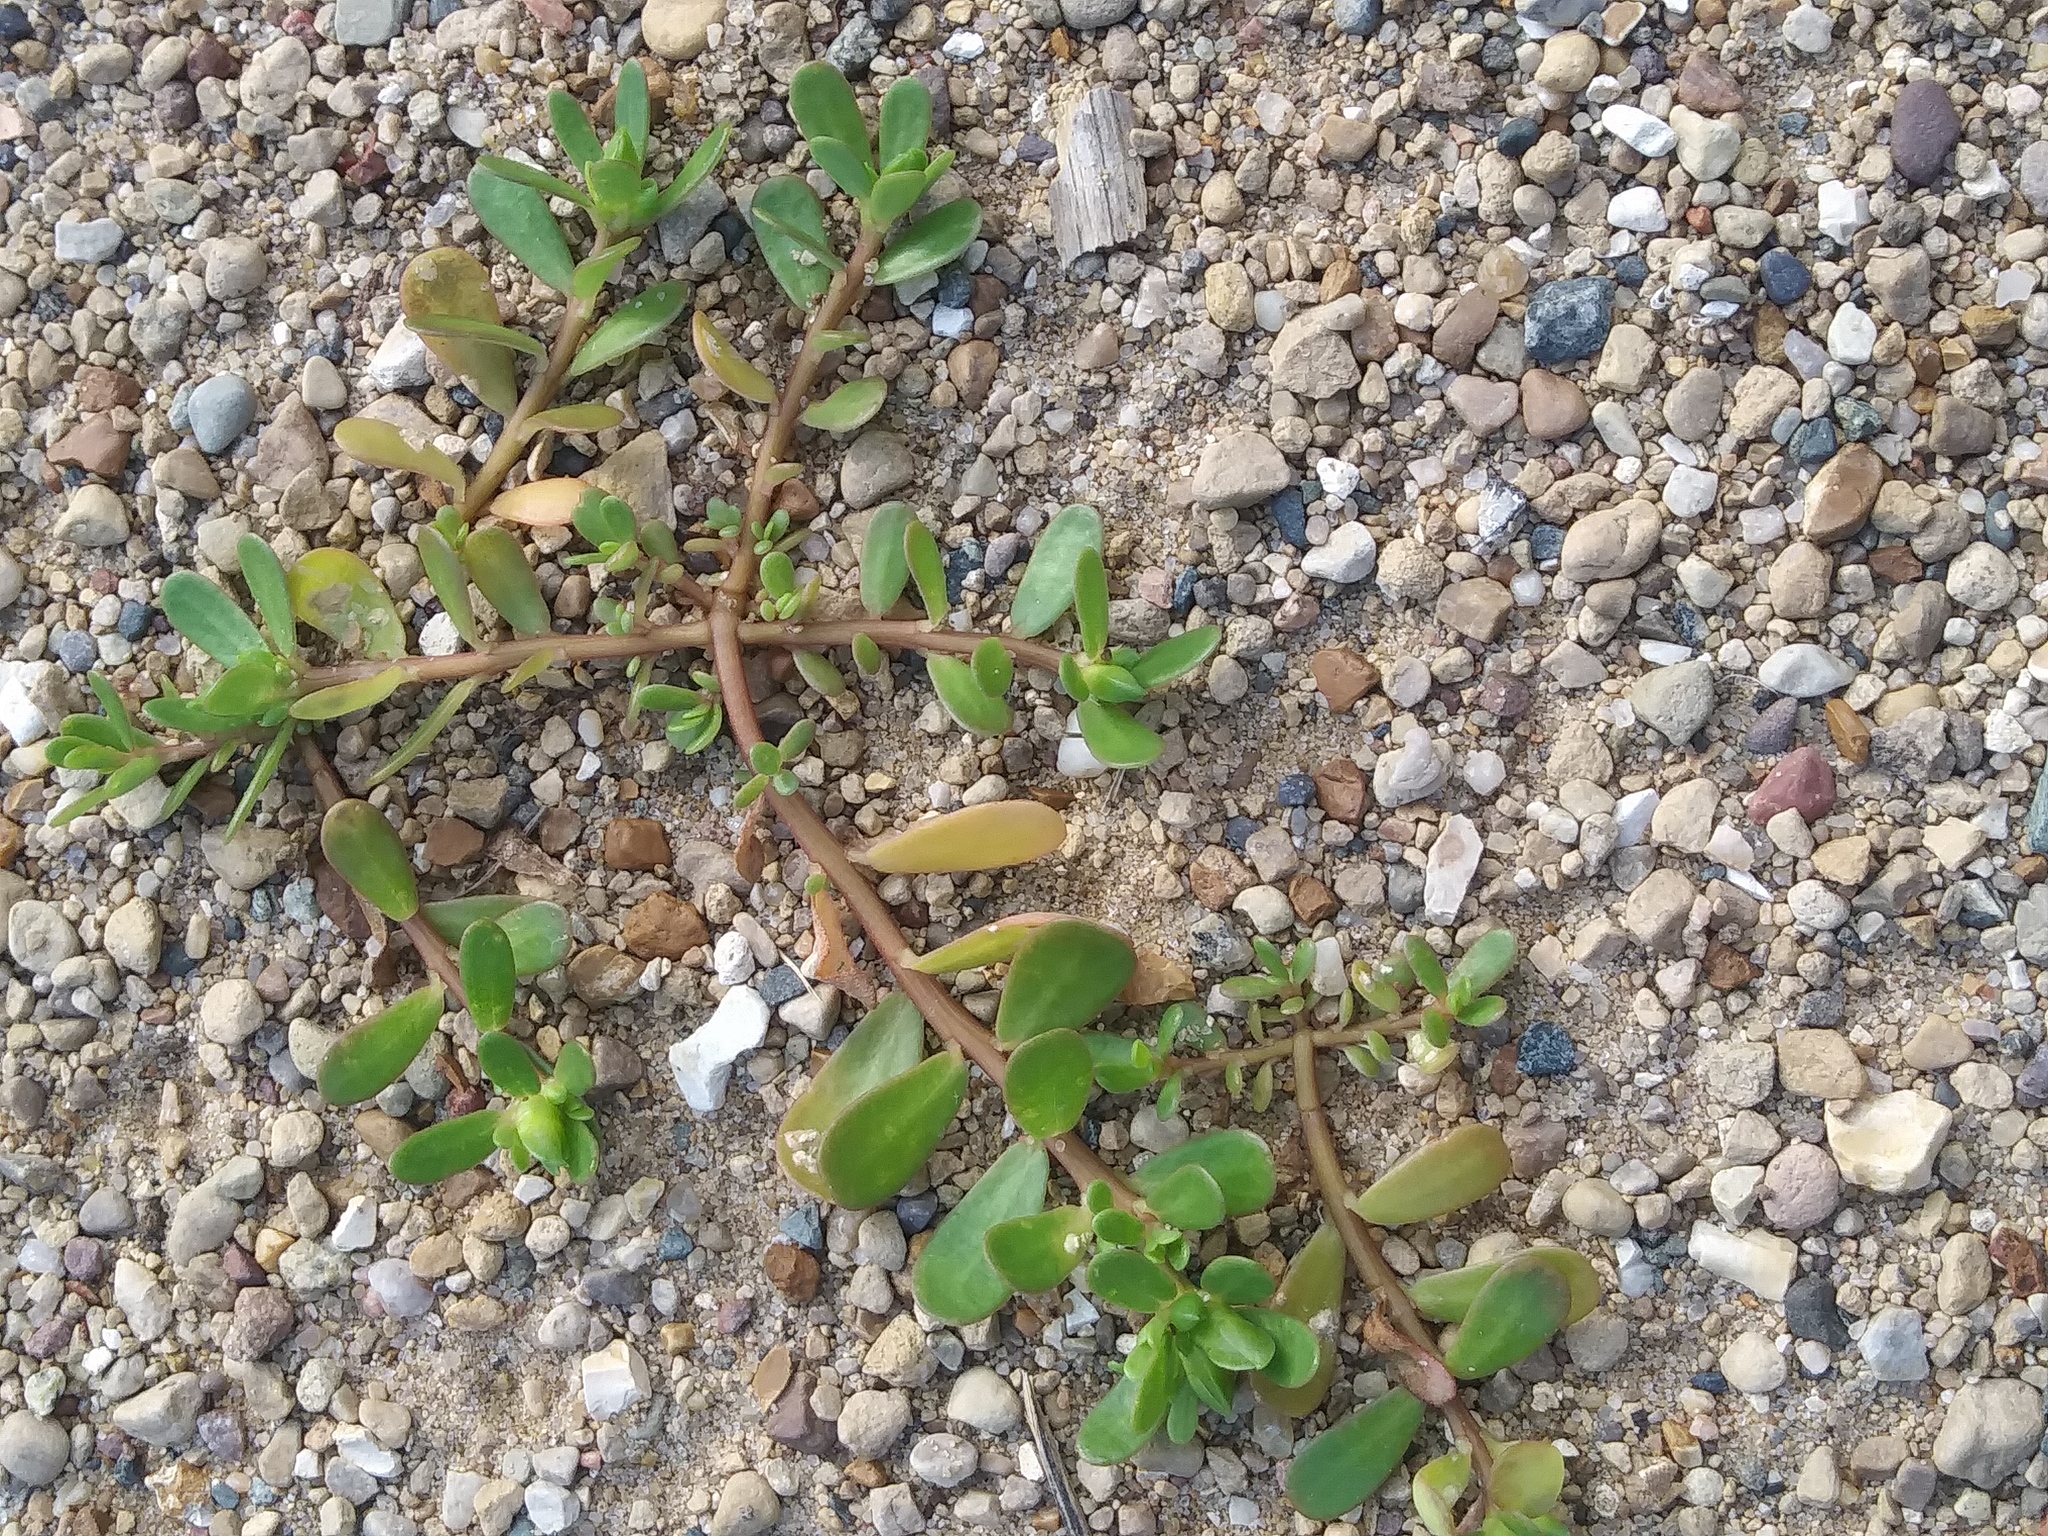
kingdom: Plantae
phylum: Tracheophyta
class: Magnoliopsida
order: Caryophyllales
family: Portulacaceae
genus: Portulaca
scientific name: Portulaca oleracea
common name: Common purslane
